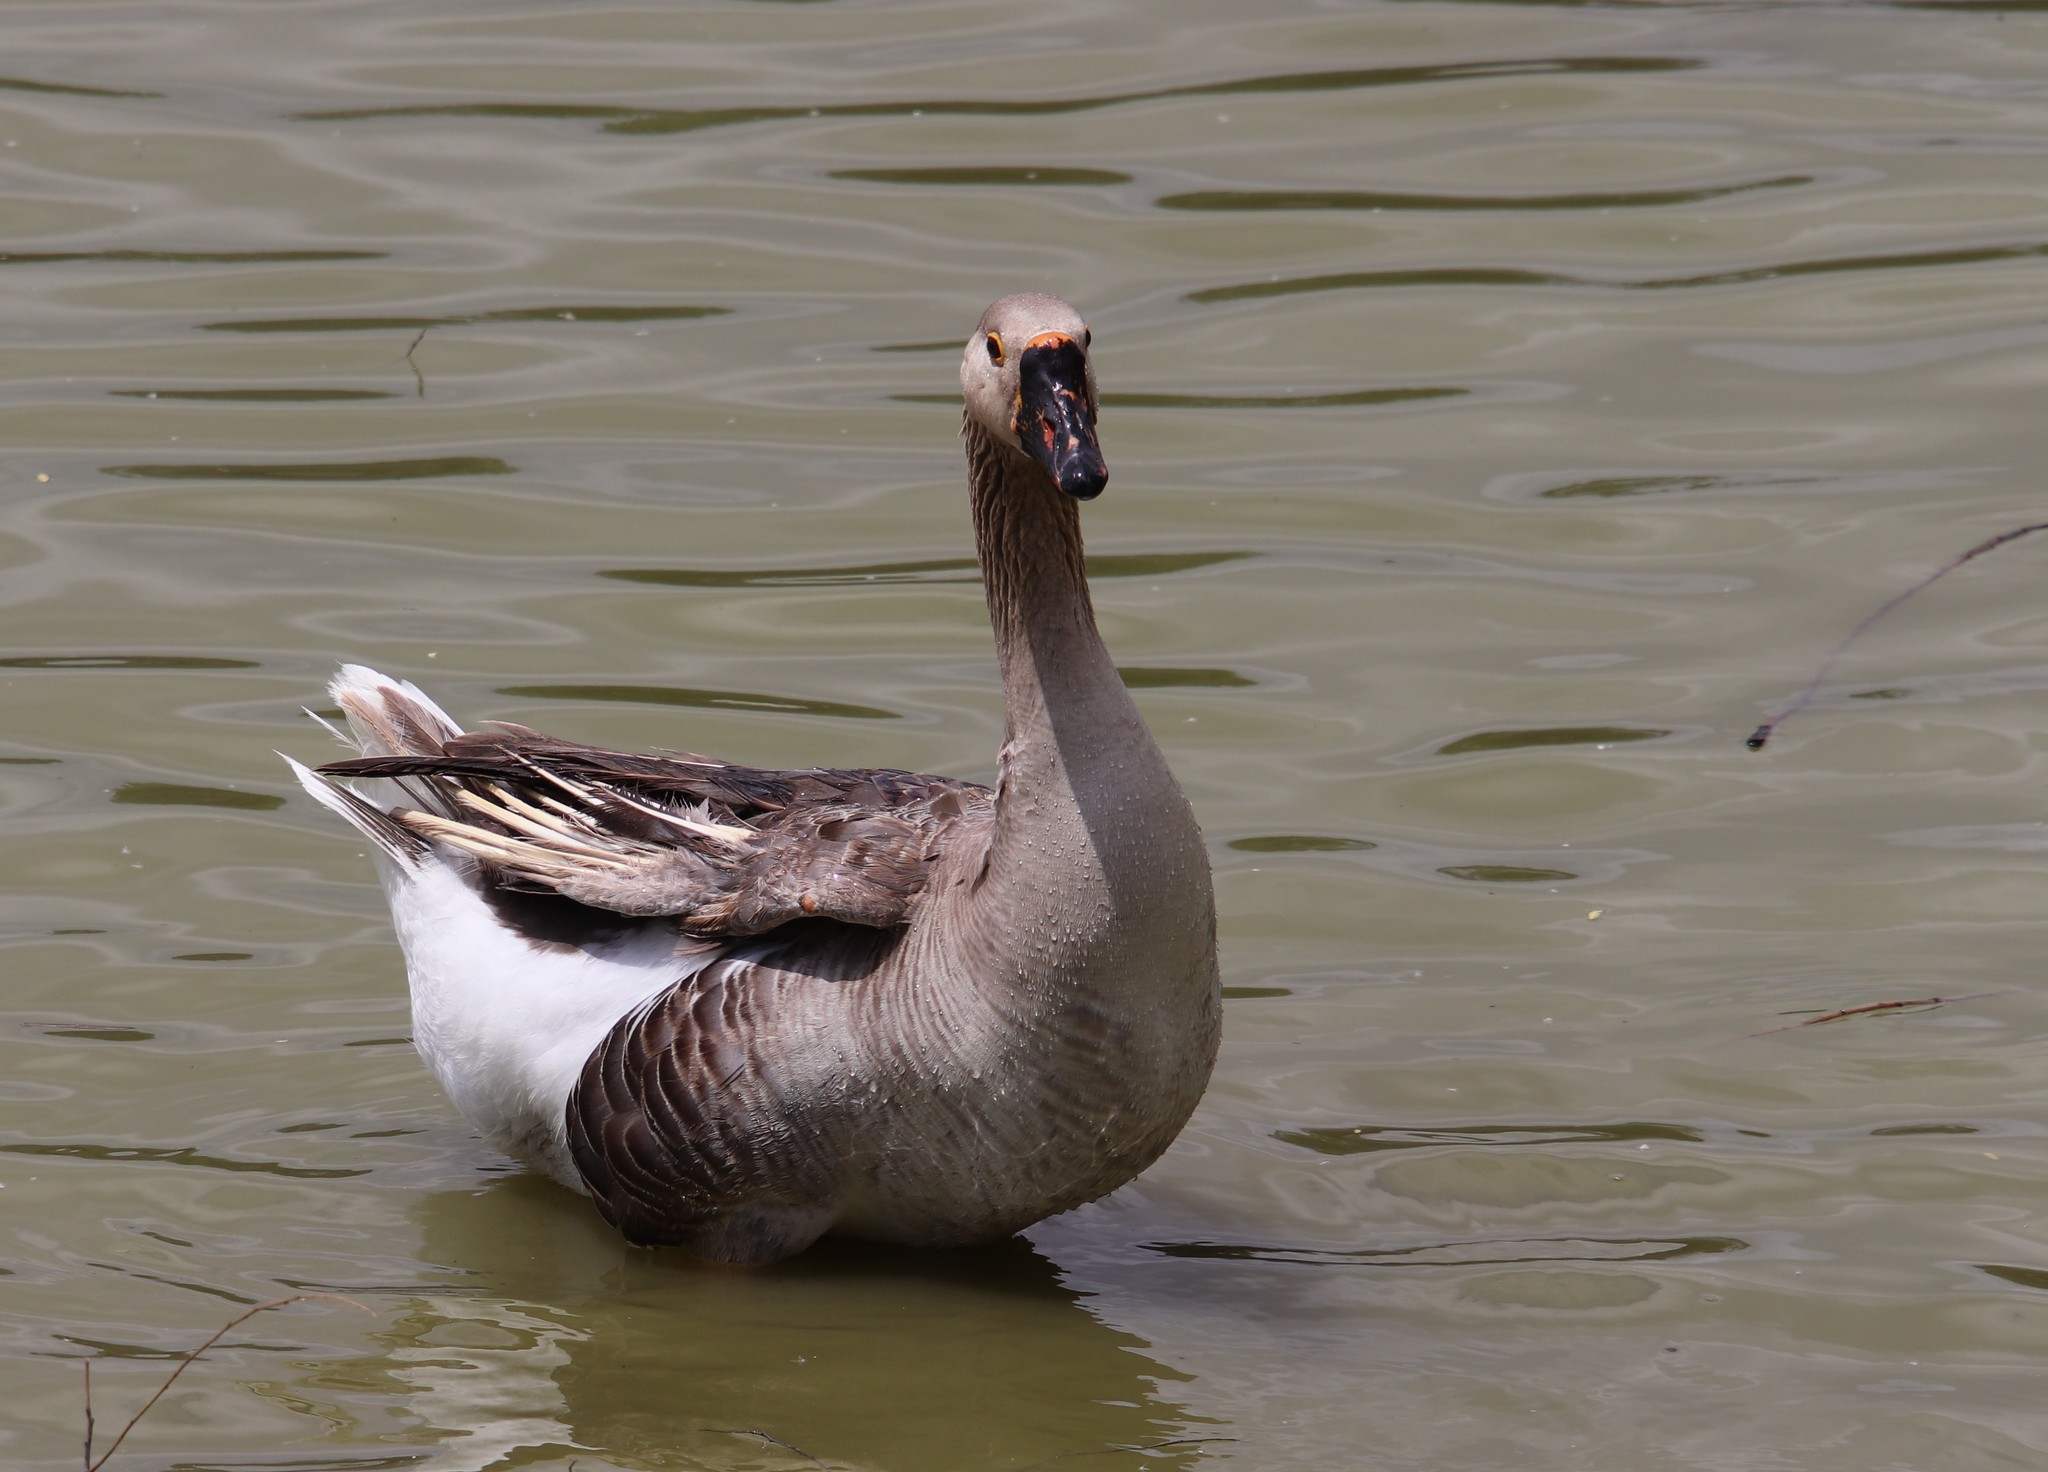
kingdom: Animalia
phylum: Chordata
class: Aves
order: Anseriformes
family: Anatidae
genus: Anser
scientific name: Anser
